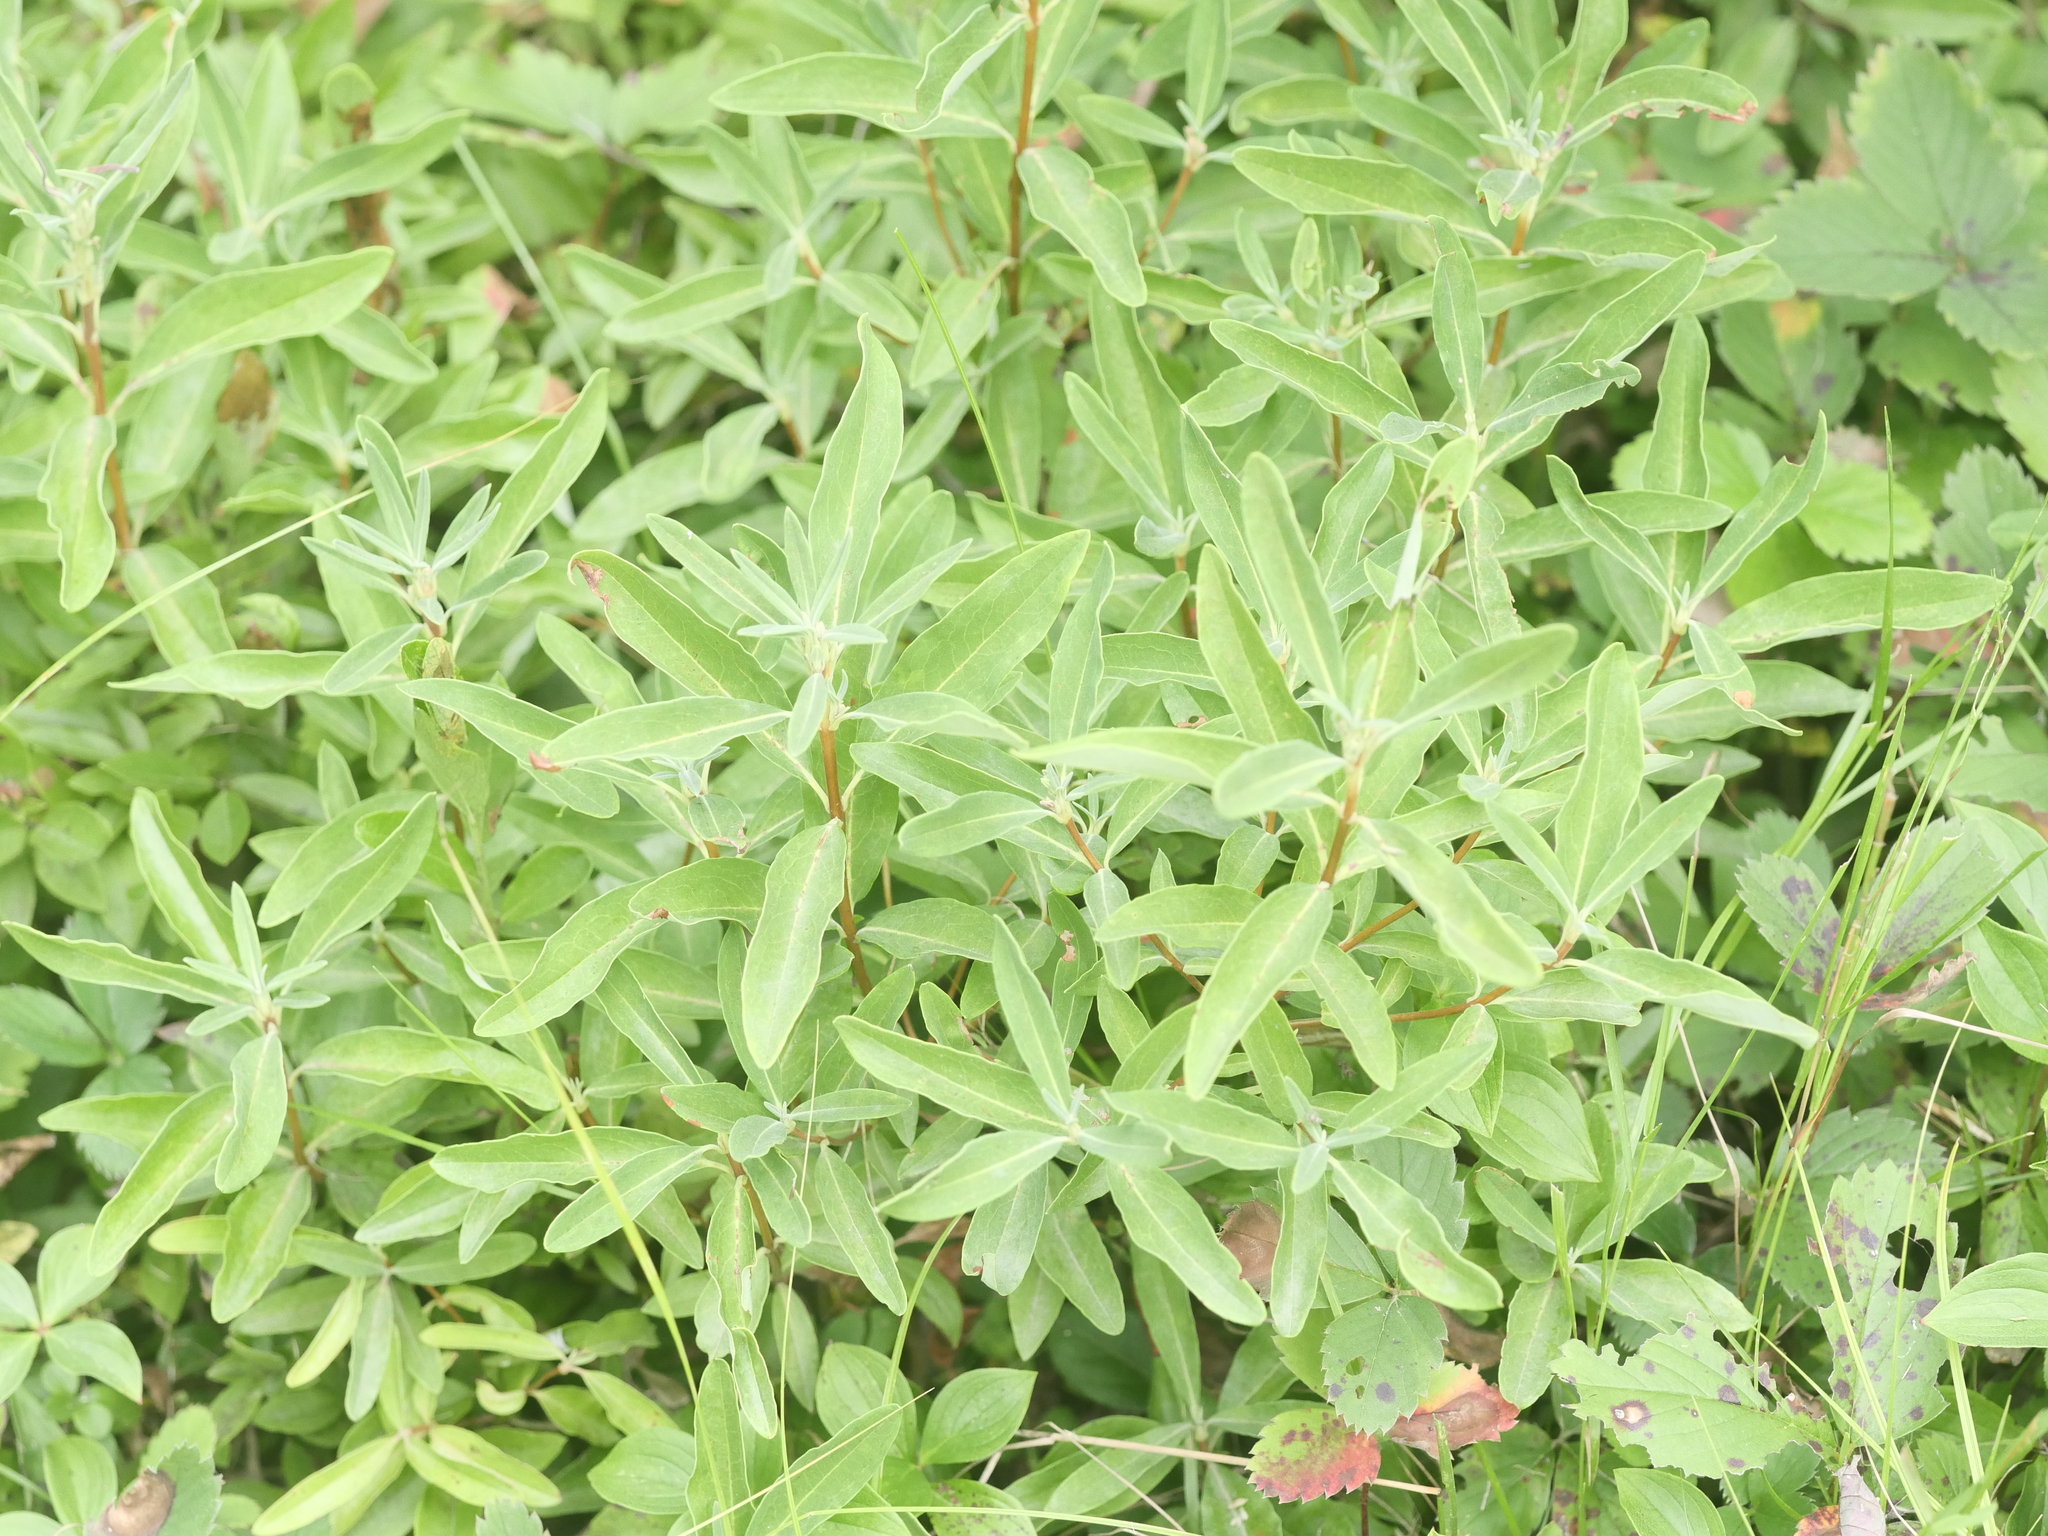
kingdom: Plantae
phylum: Tracheophyta
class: Magnoliopsida
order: Ericales
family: Ericaceae
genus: Kalmia
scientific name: Kalmia angustifolia
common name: Sheep-laurel
